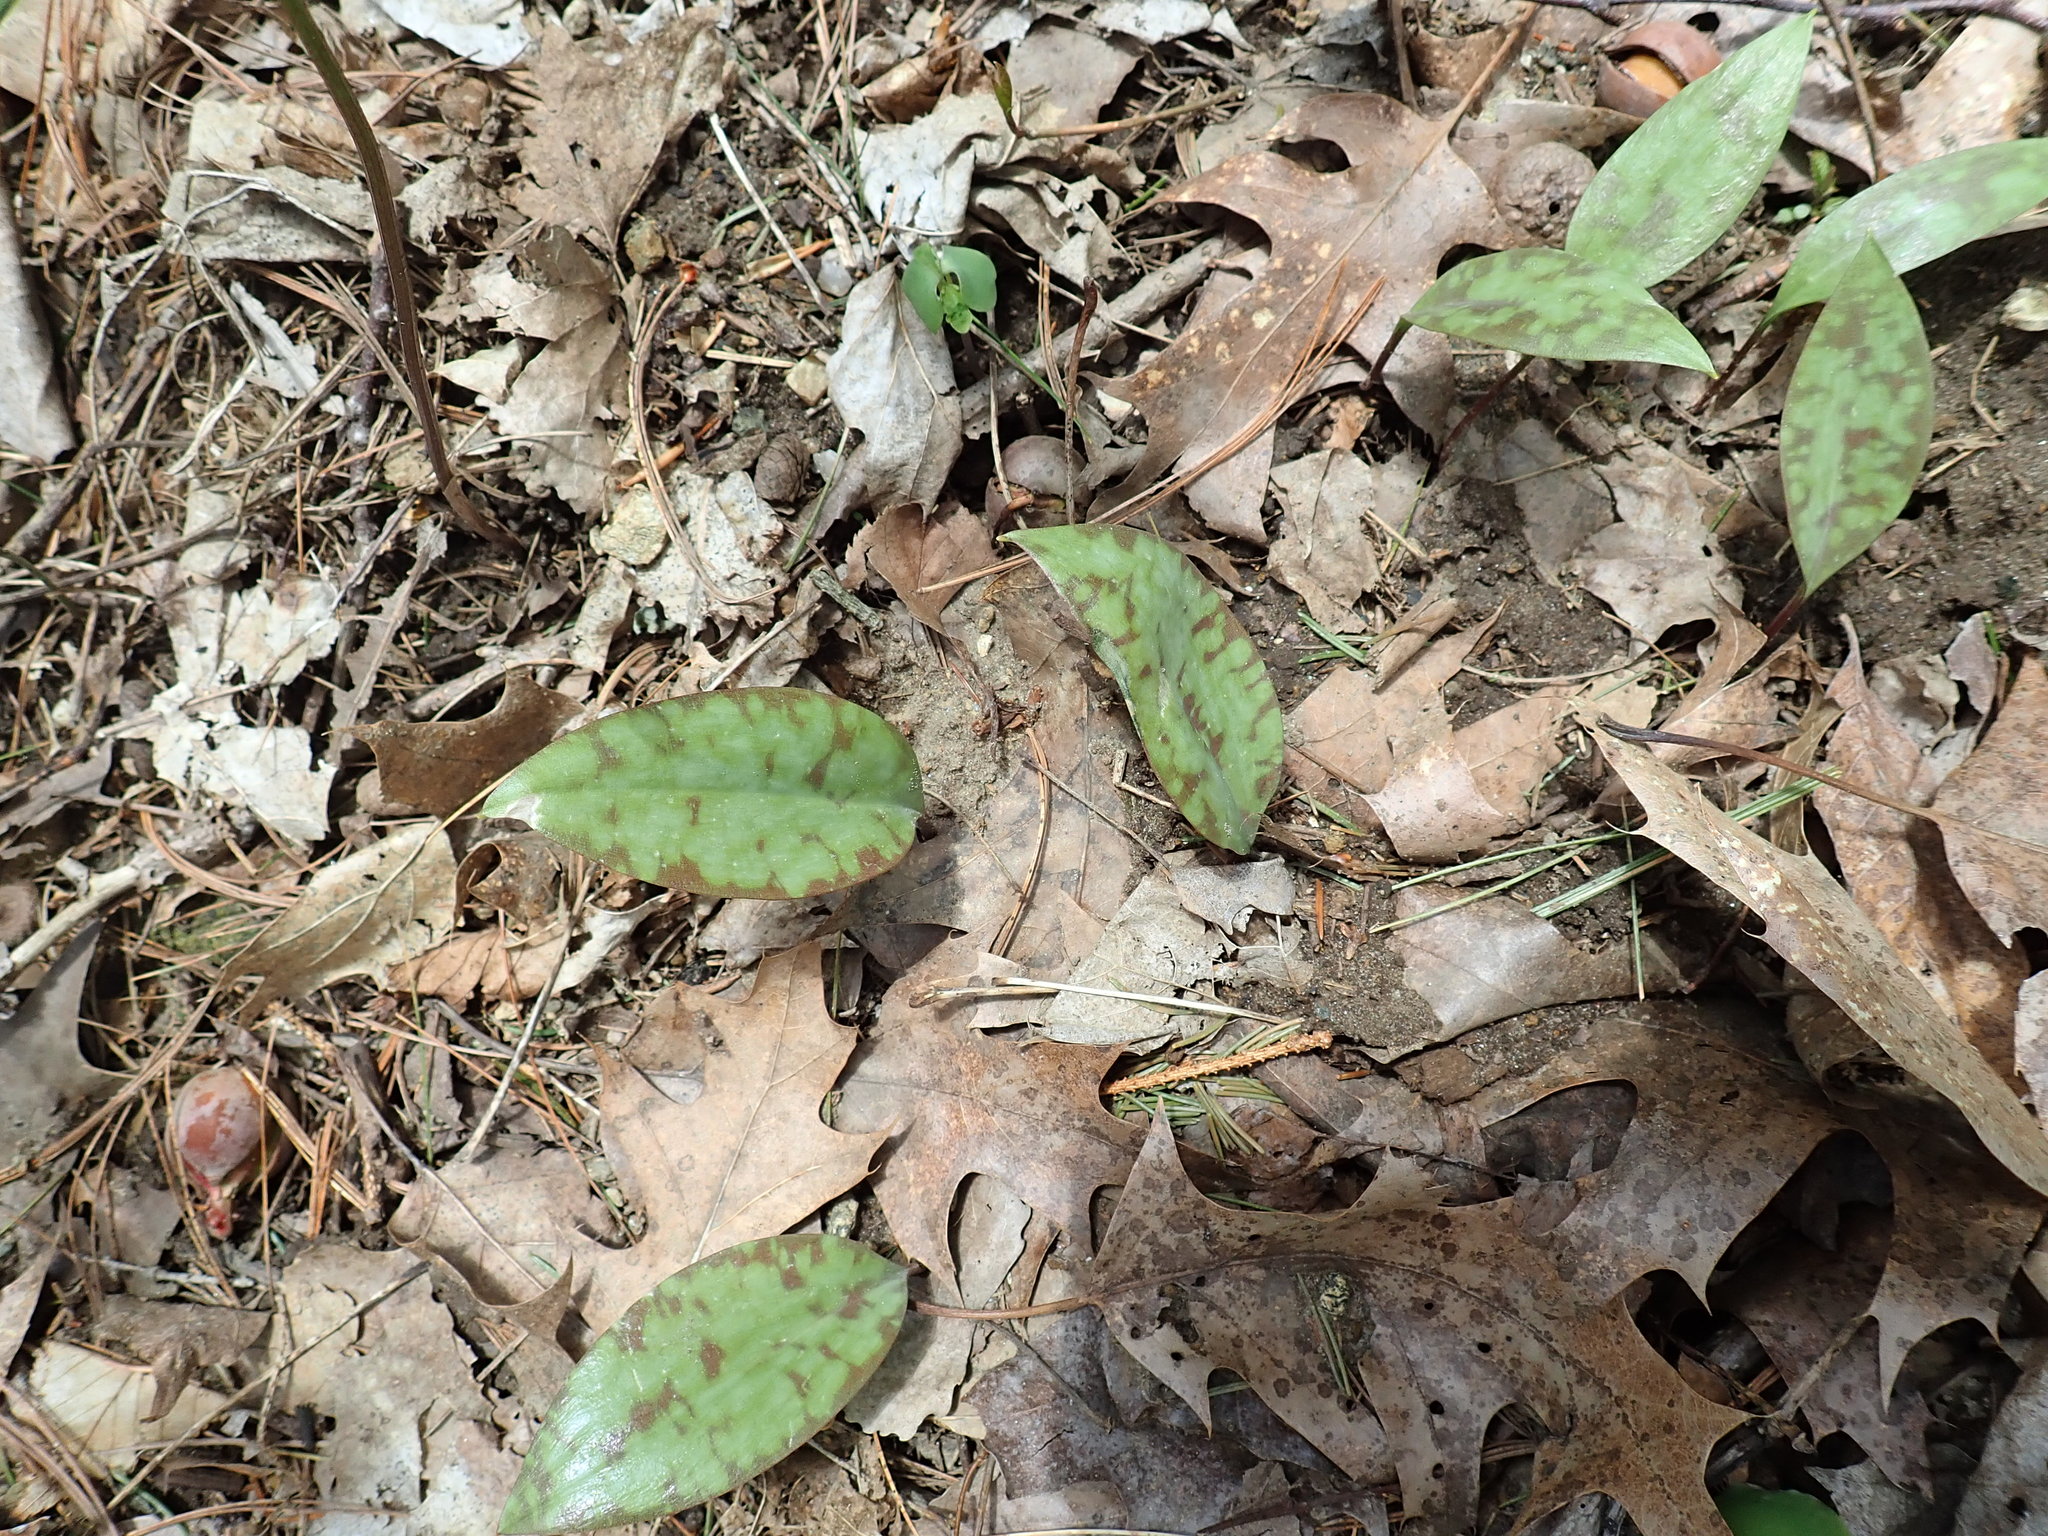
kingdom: Plantae
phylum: Tracheophyta
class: Liliopsida
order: Liliales
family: Liliaceae
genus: Erythronium
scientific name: Erythronium americanum
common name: Yellow adder's-tongue
